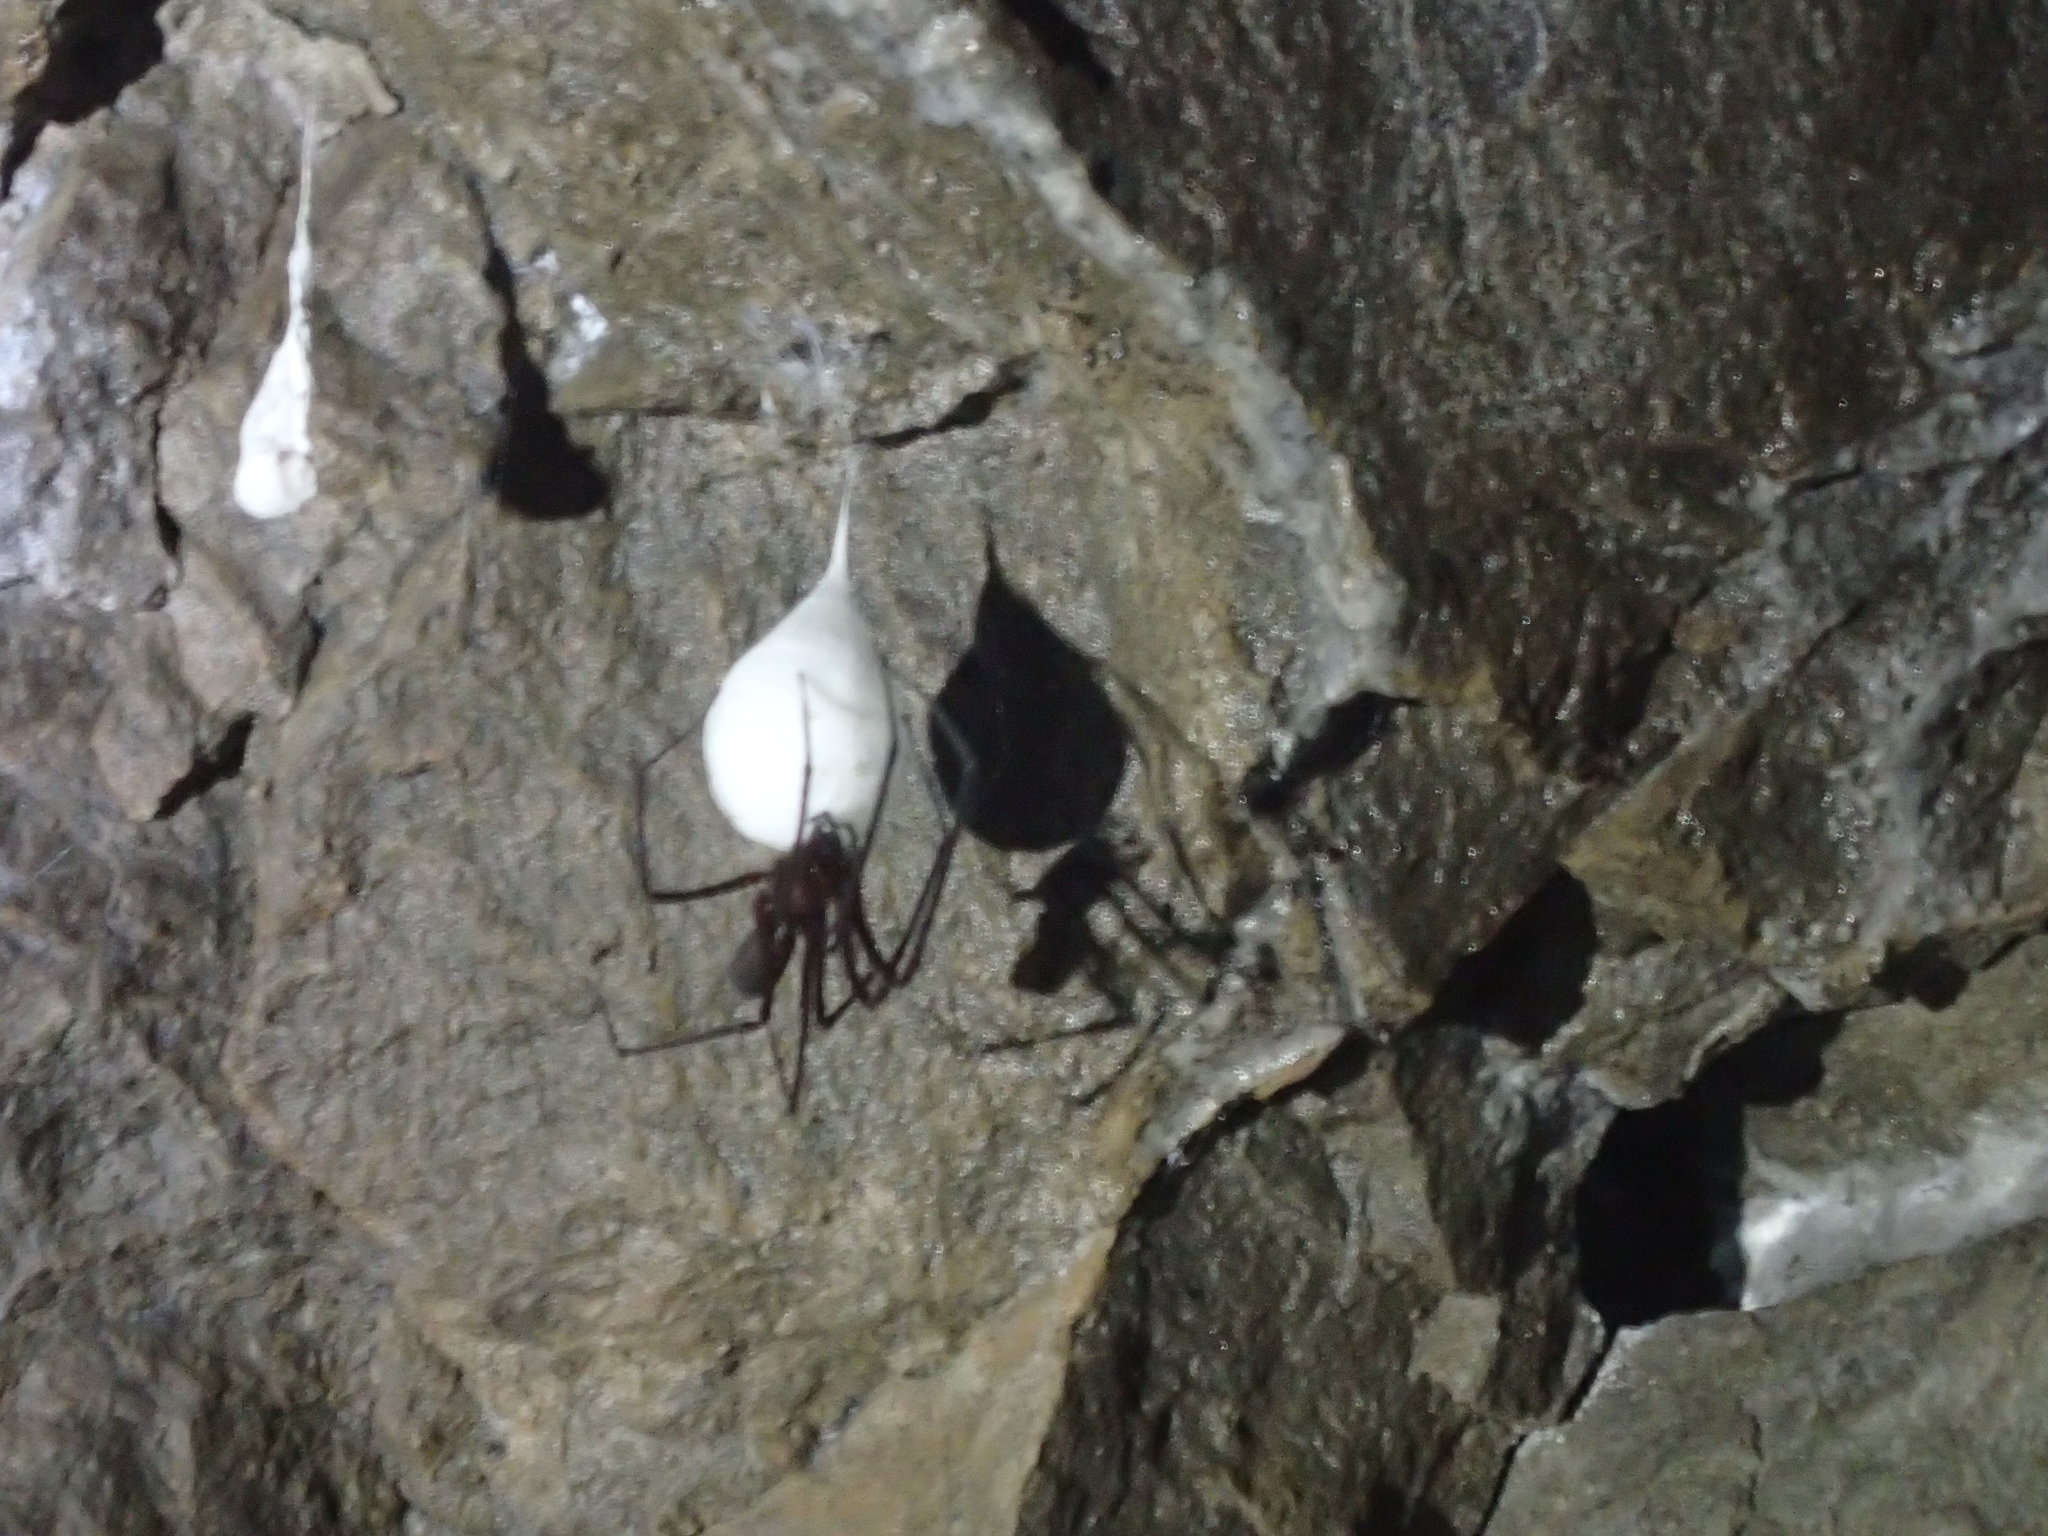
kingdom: Animalia
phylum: Arthropoda
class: Arachnida
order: Araneae
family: Gradungulidae
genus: Hickmania
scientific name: Hickmania troglodytes
